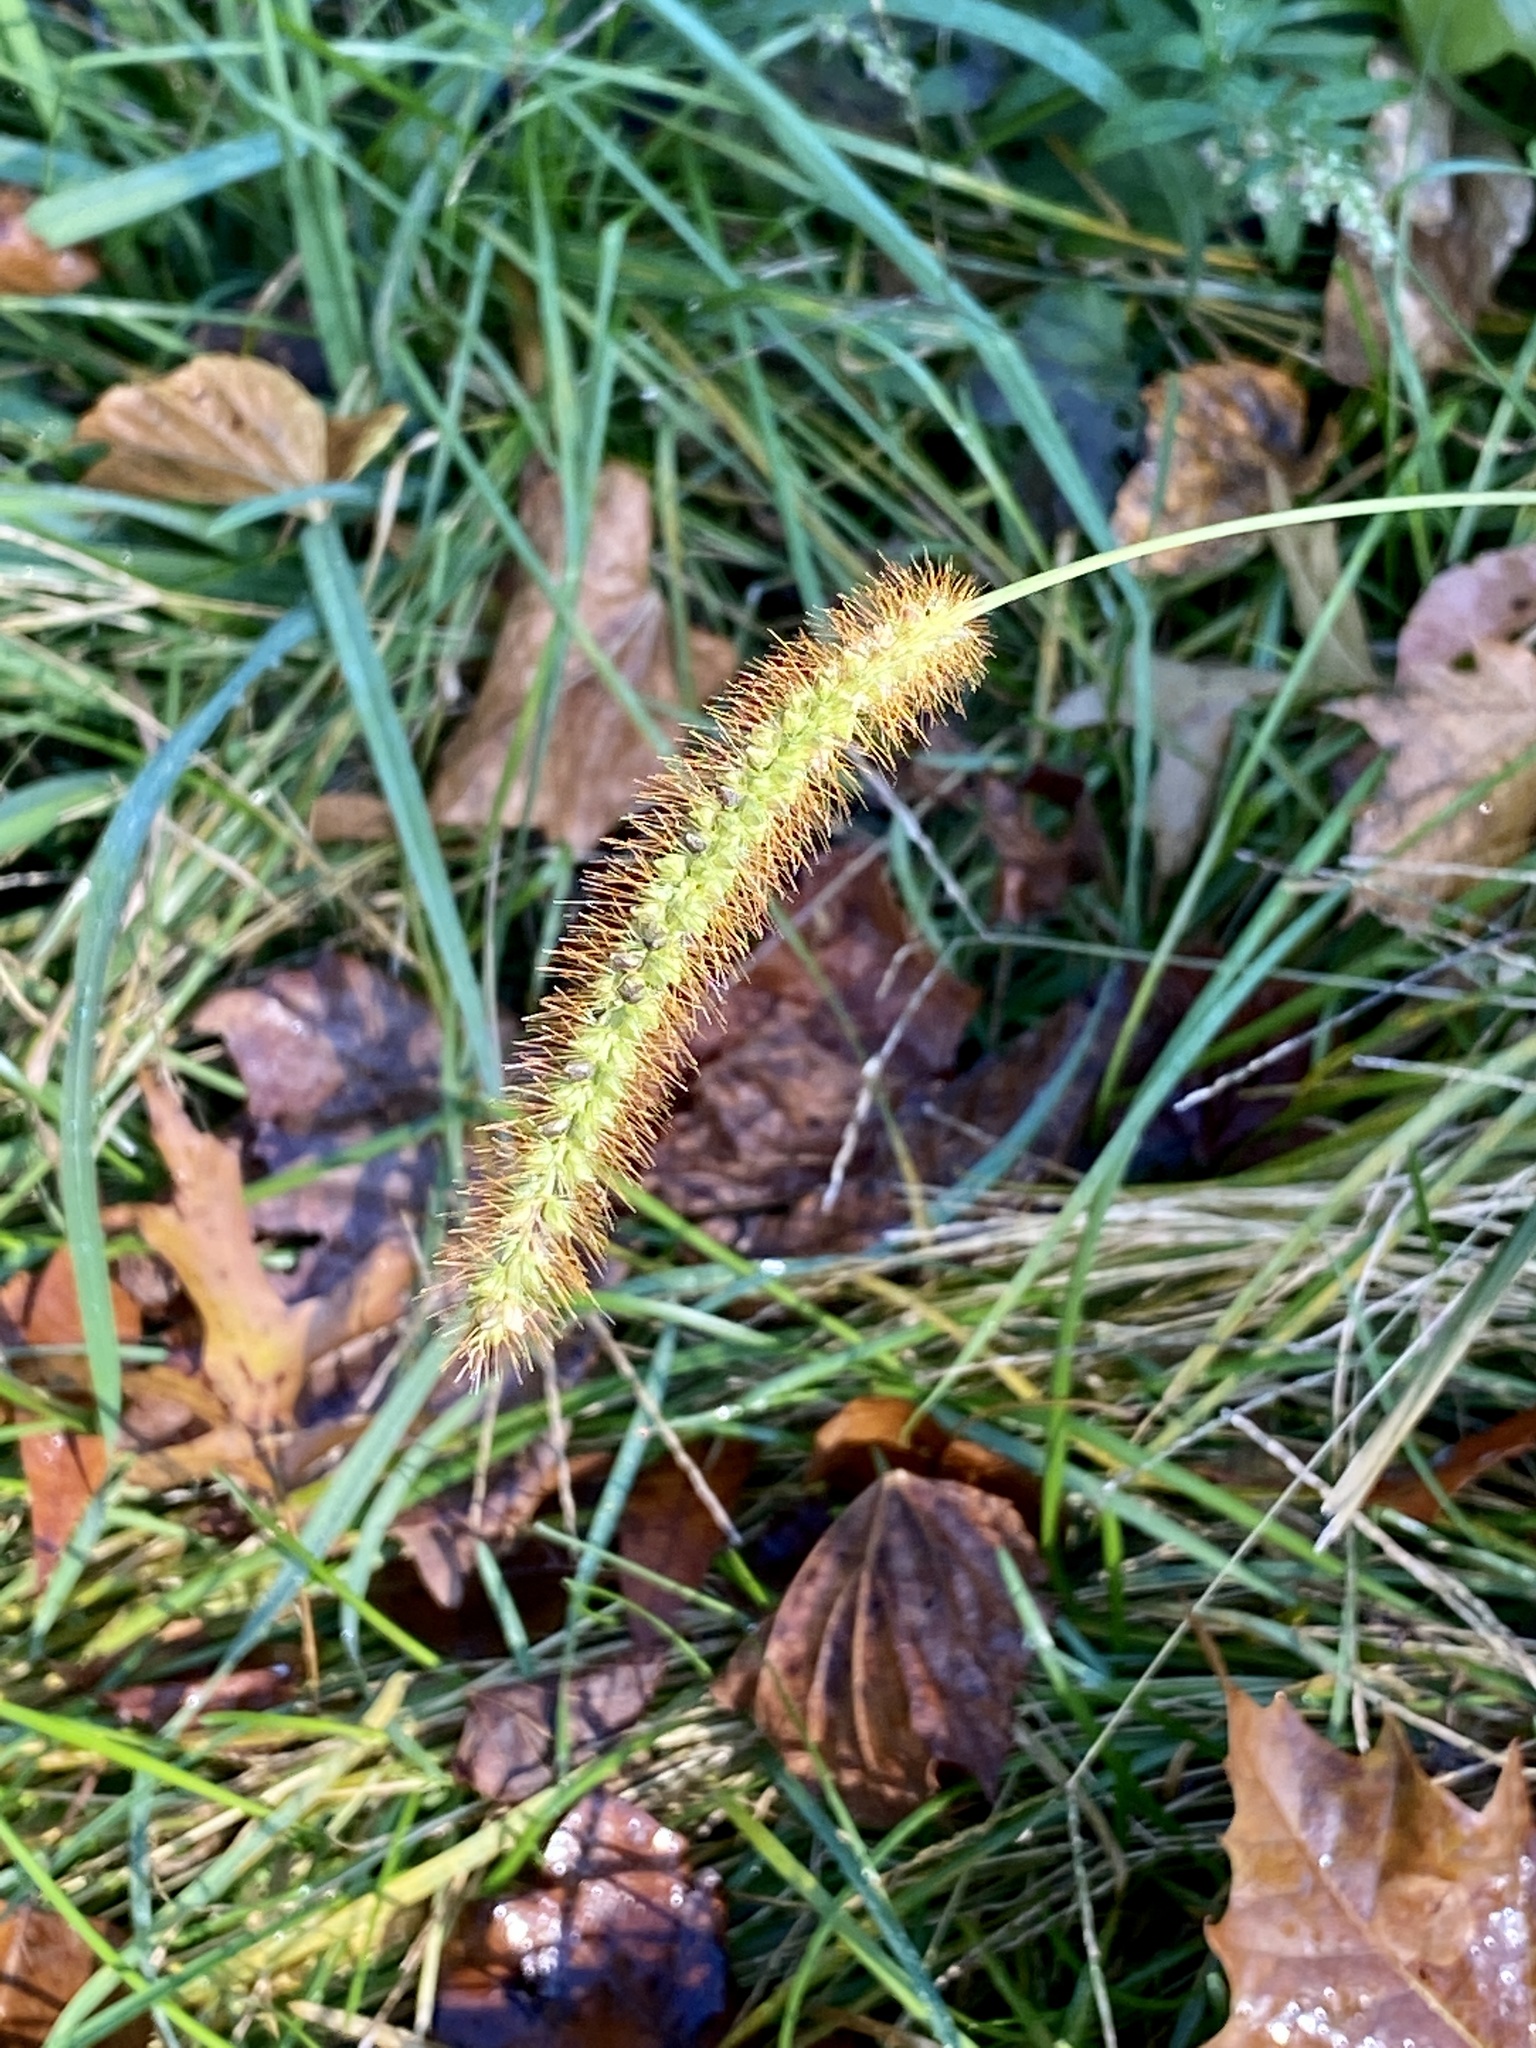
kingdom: Plantae
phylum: Tracheophyta
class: Liliopsida
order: Poales
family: Poaceae
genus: Setaria
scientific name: Setaria pumila
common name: Yellow bristle-grass
